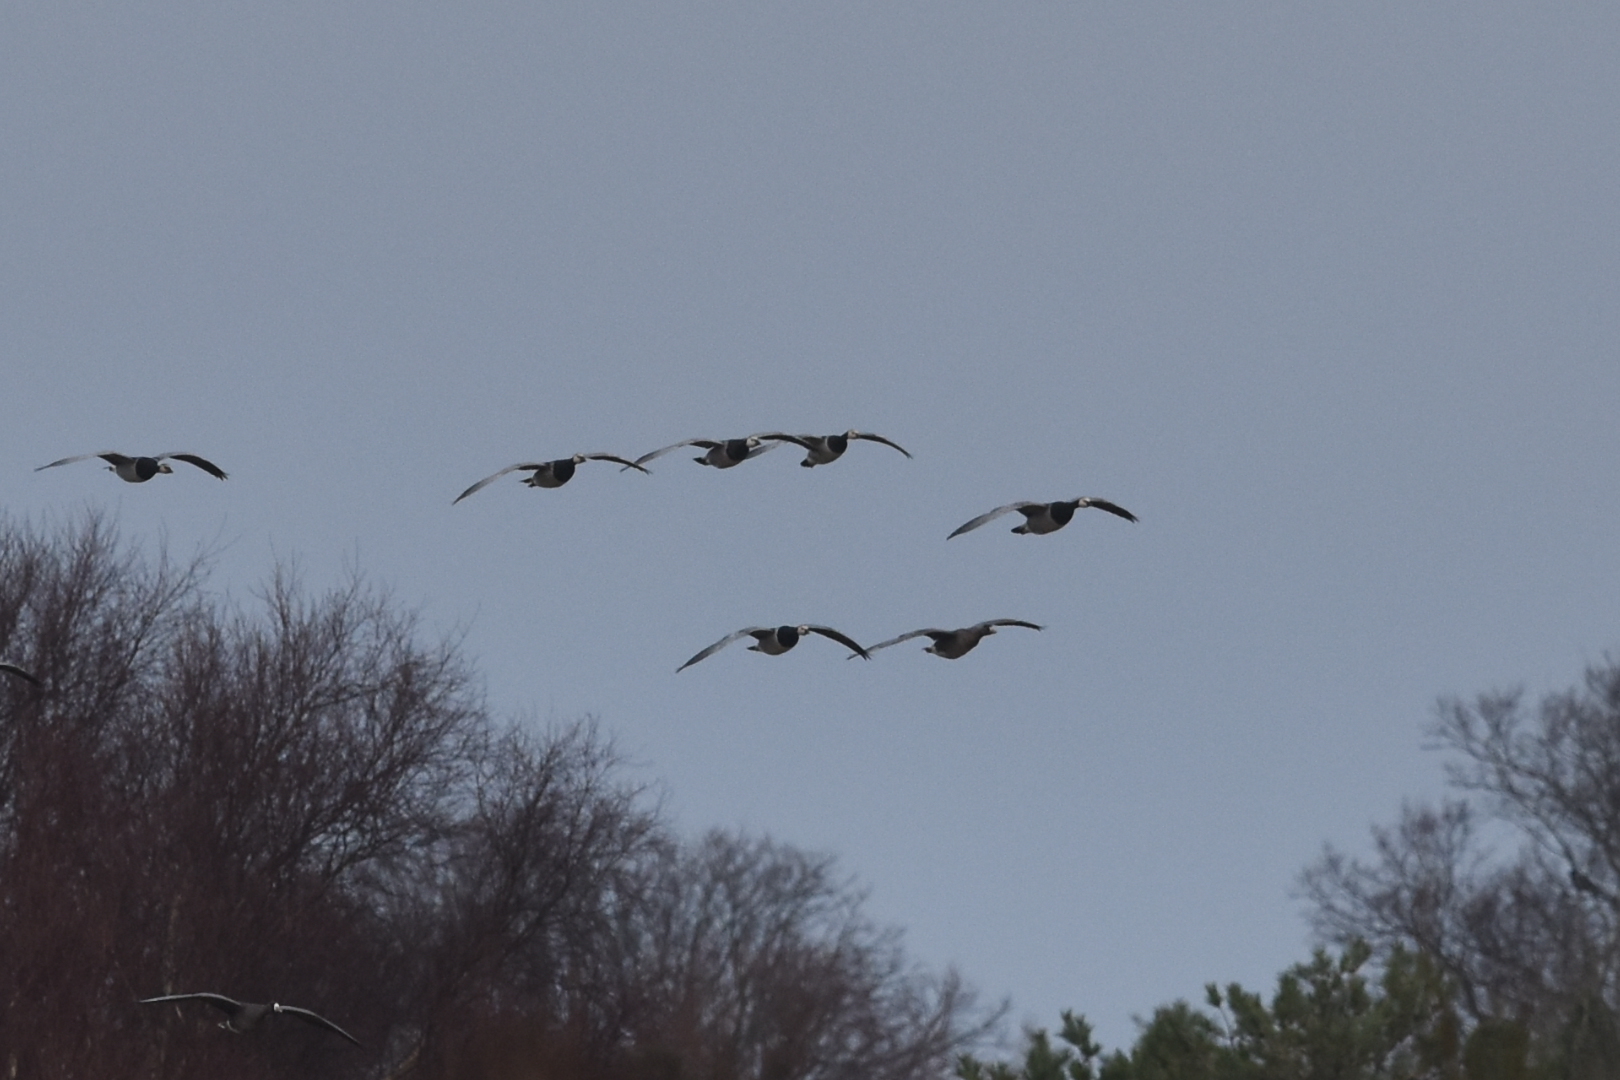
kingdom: Animalia
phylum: Chordata
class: Aves
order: Anseriformes
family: Anatidae
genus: Branta
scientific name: Branta leucopsis
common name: Barnacle goose
